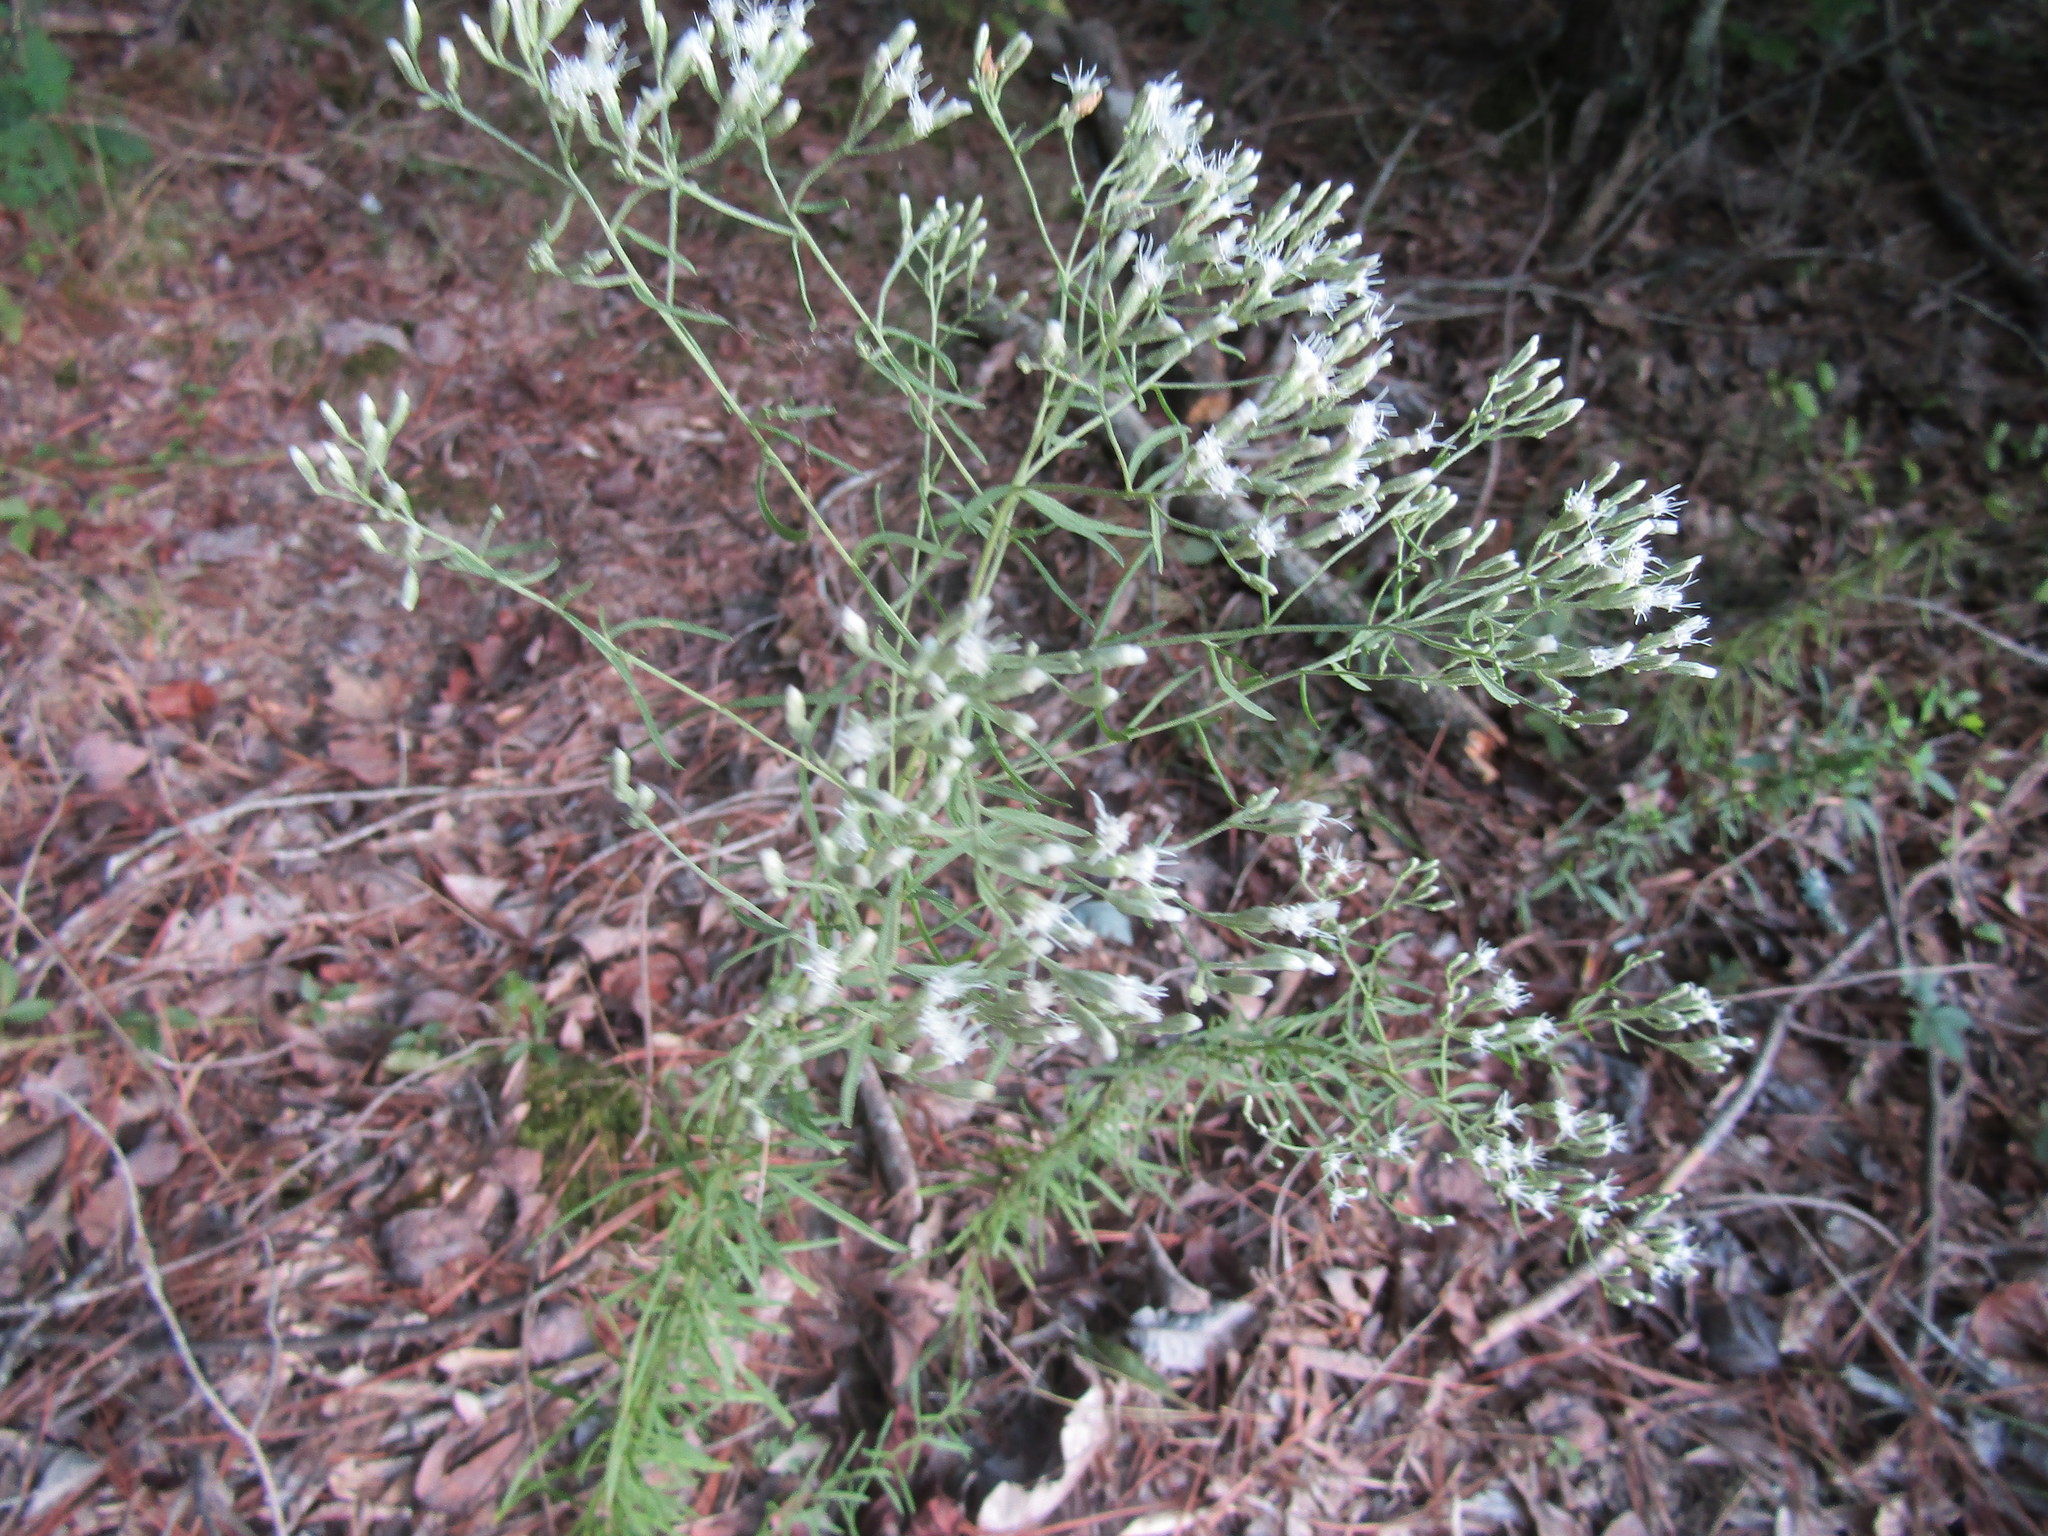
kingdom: Plantae
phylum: Tracheophyta
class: Magnoliopsida
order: Asterales
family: Asteraceae
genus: Eupatorium
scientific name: Eupatorium hyssopifolium
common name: Hyssop-leaf thoroughwort
